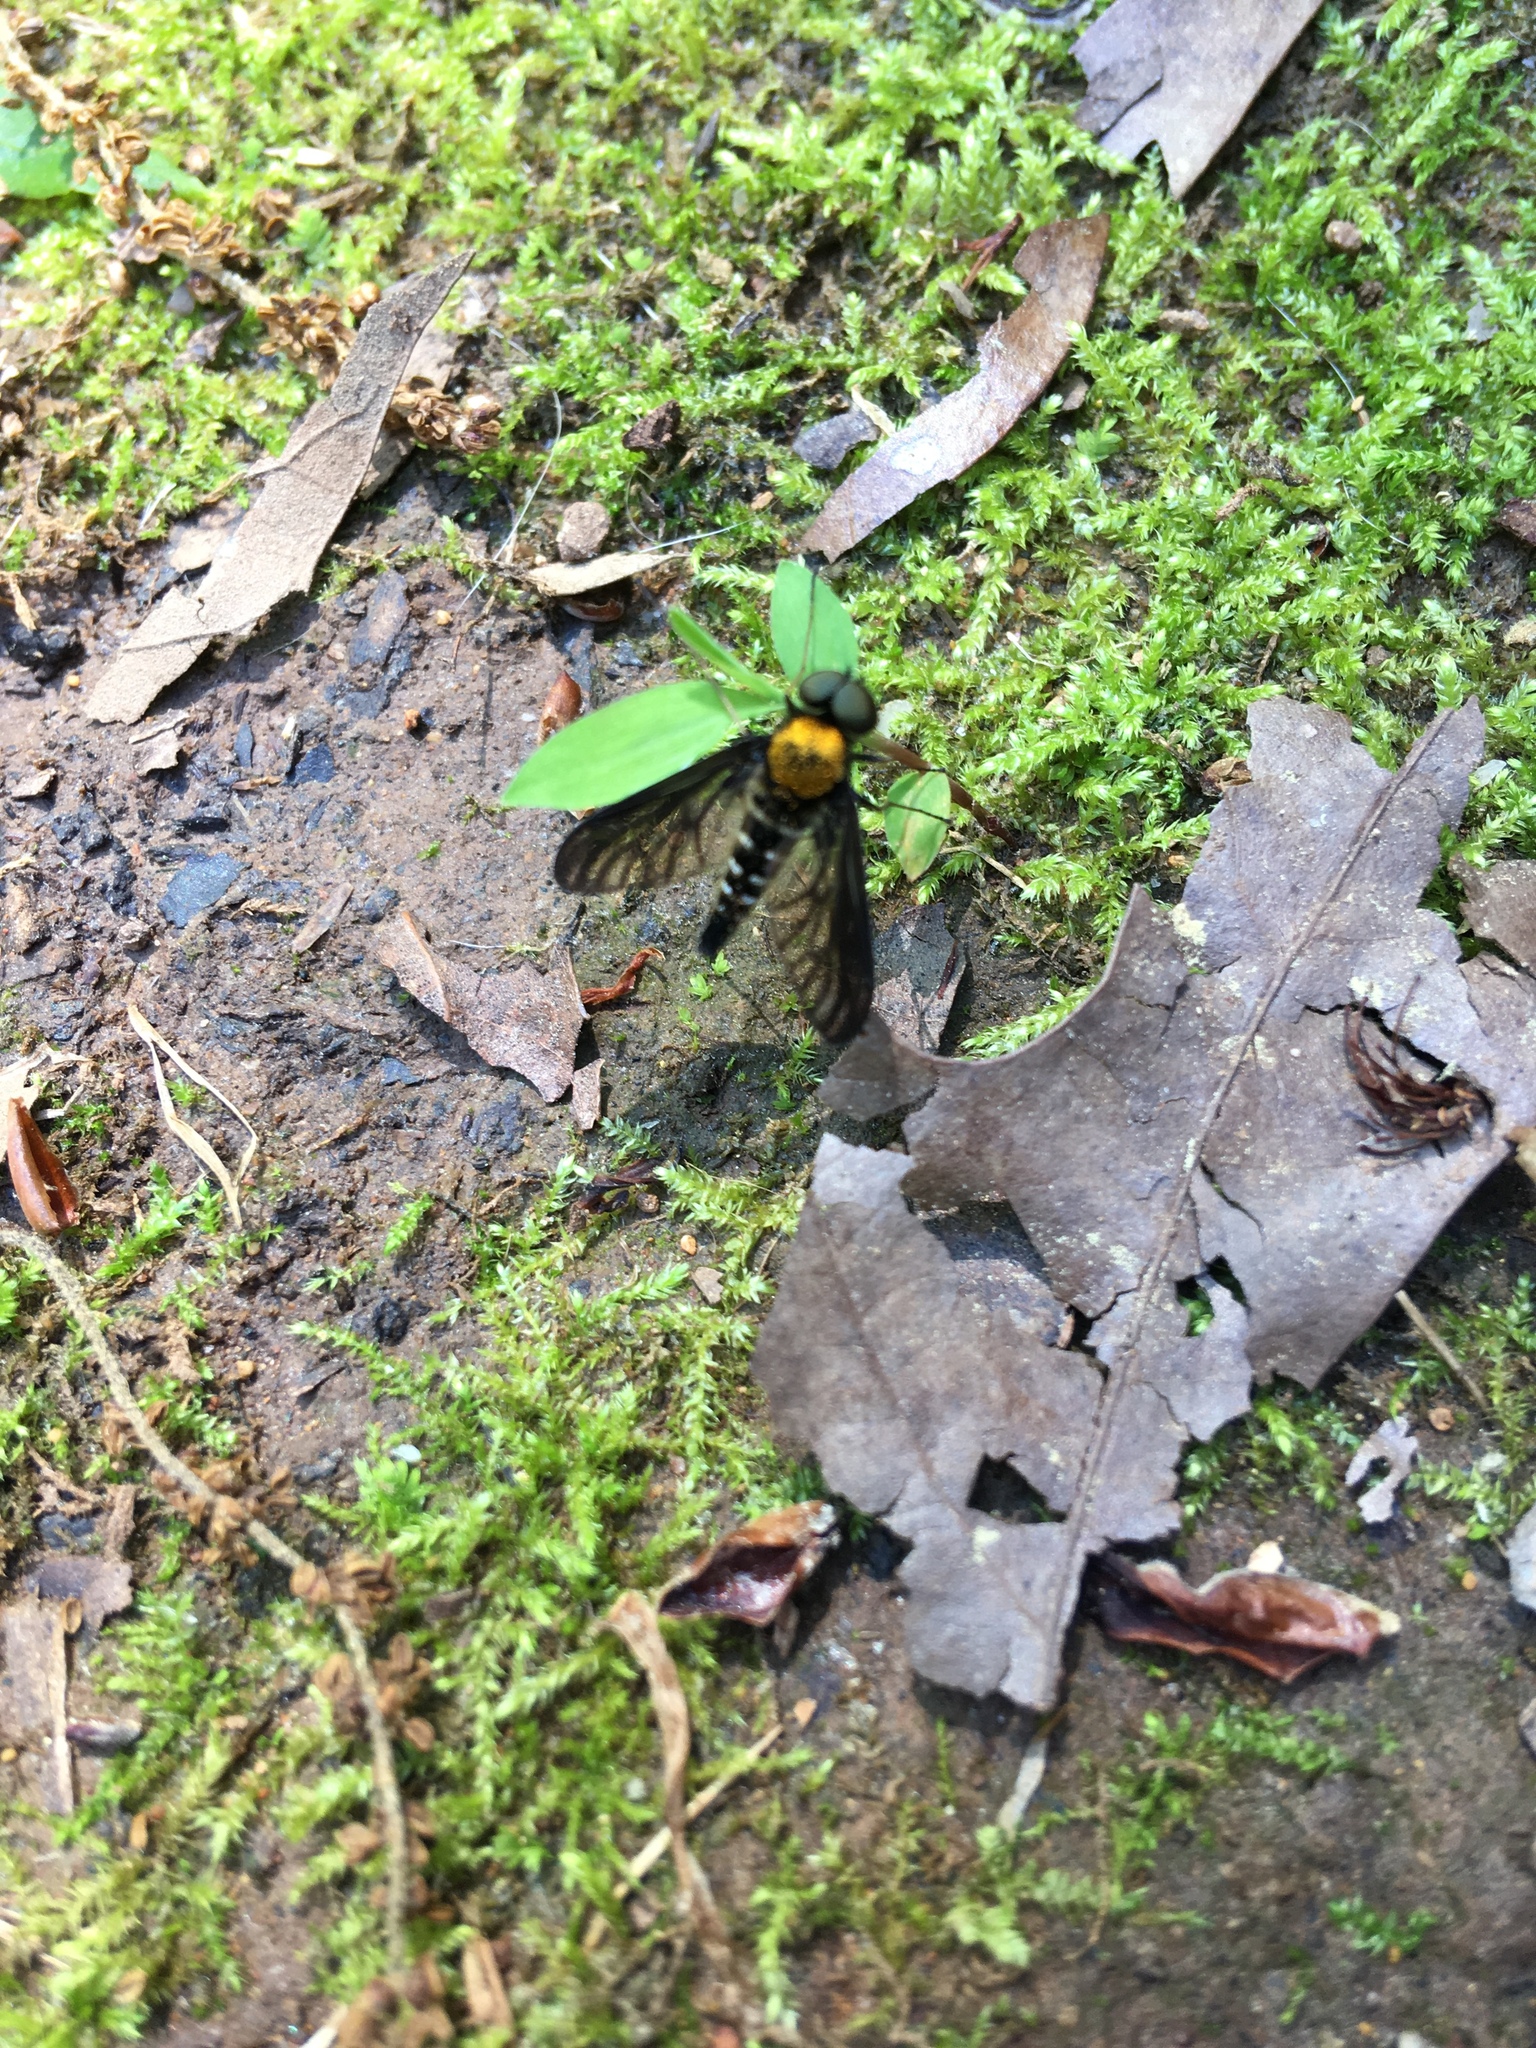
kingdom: Animalia
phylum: Arthropoda
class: Insecta
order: Diptera
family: Rhagionidae
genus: Chrysopilus
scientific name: Chrysopilus thoracicus
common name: Golden-backed snipe fly
